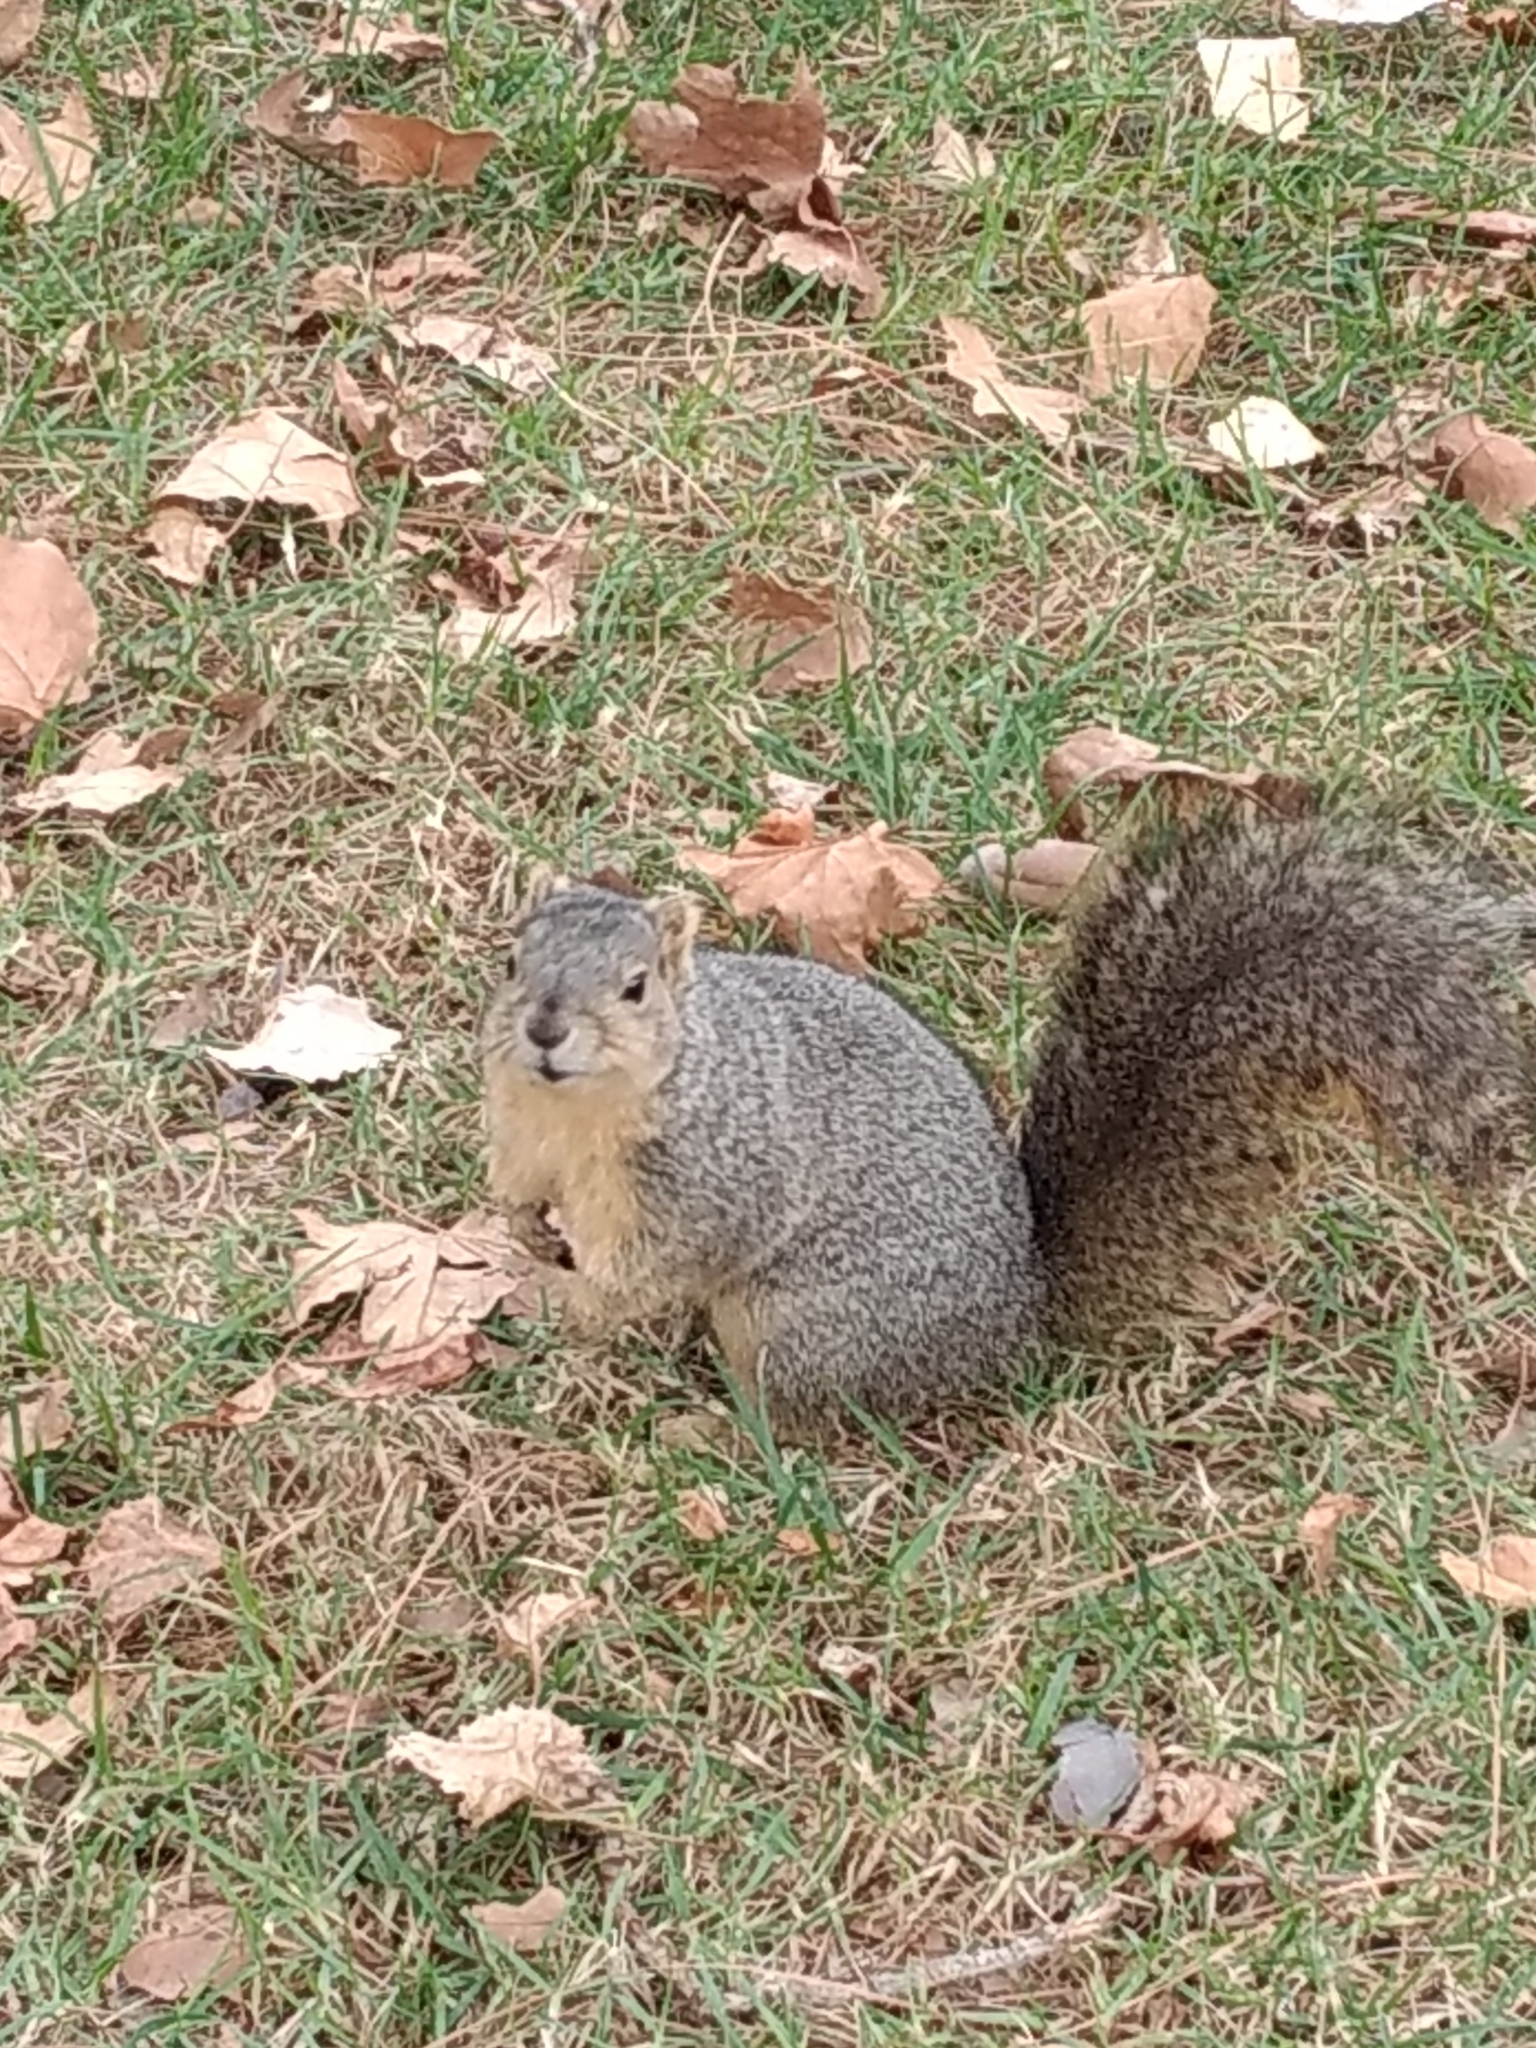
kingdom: Animalia
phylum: Chordata
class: Mammalia
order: Rodentia
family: Sciuridae
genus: Sciurus
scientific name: Sciurus niger
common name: Fox squirrel
